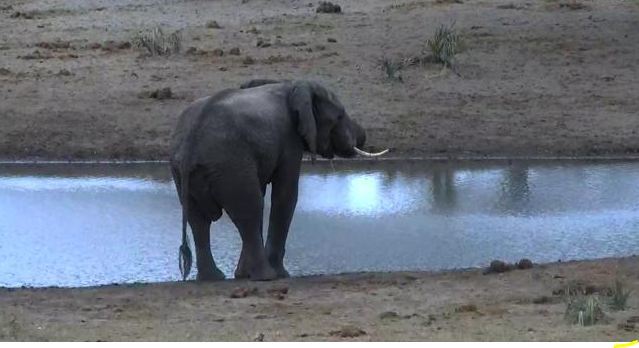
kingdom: Animalia
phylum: Chordata
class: Mammalia
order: Proboscidea
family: Elephantidae
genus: Loxodonta
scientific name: Loxodonta africana
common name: African elephant
